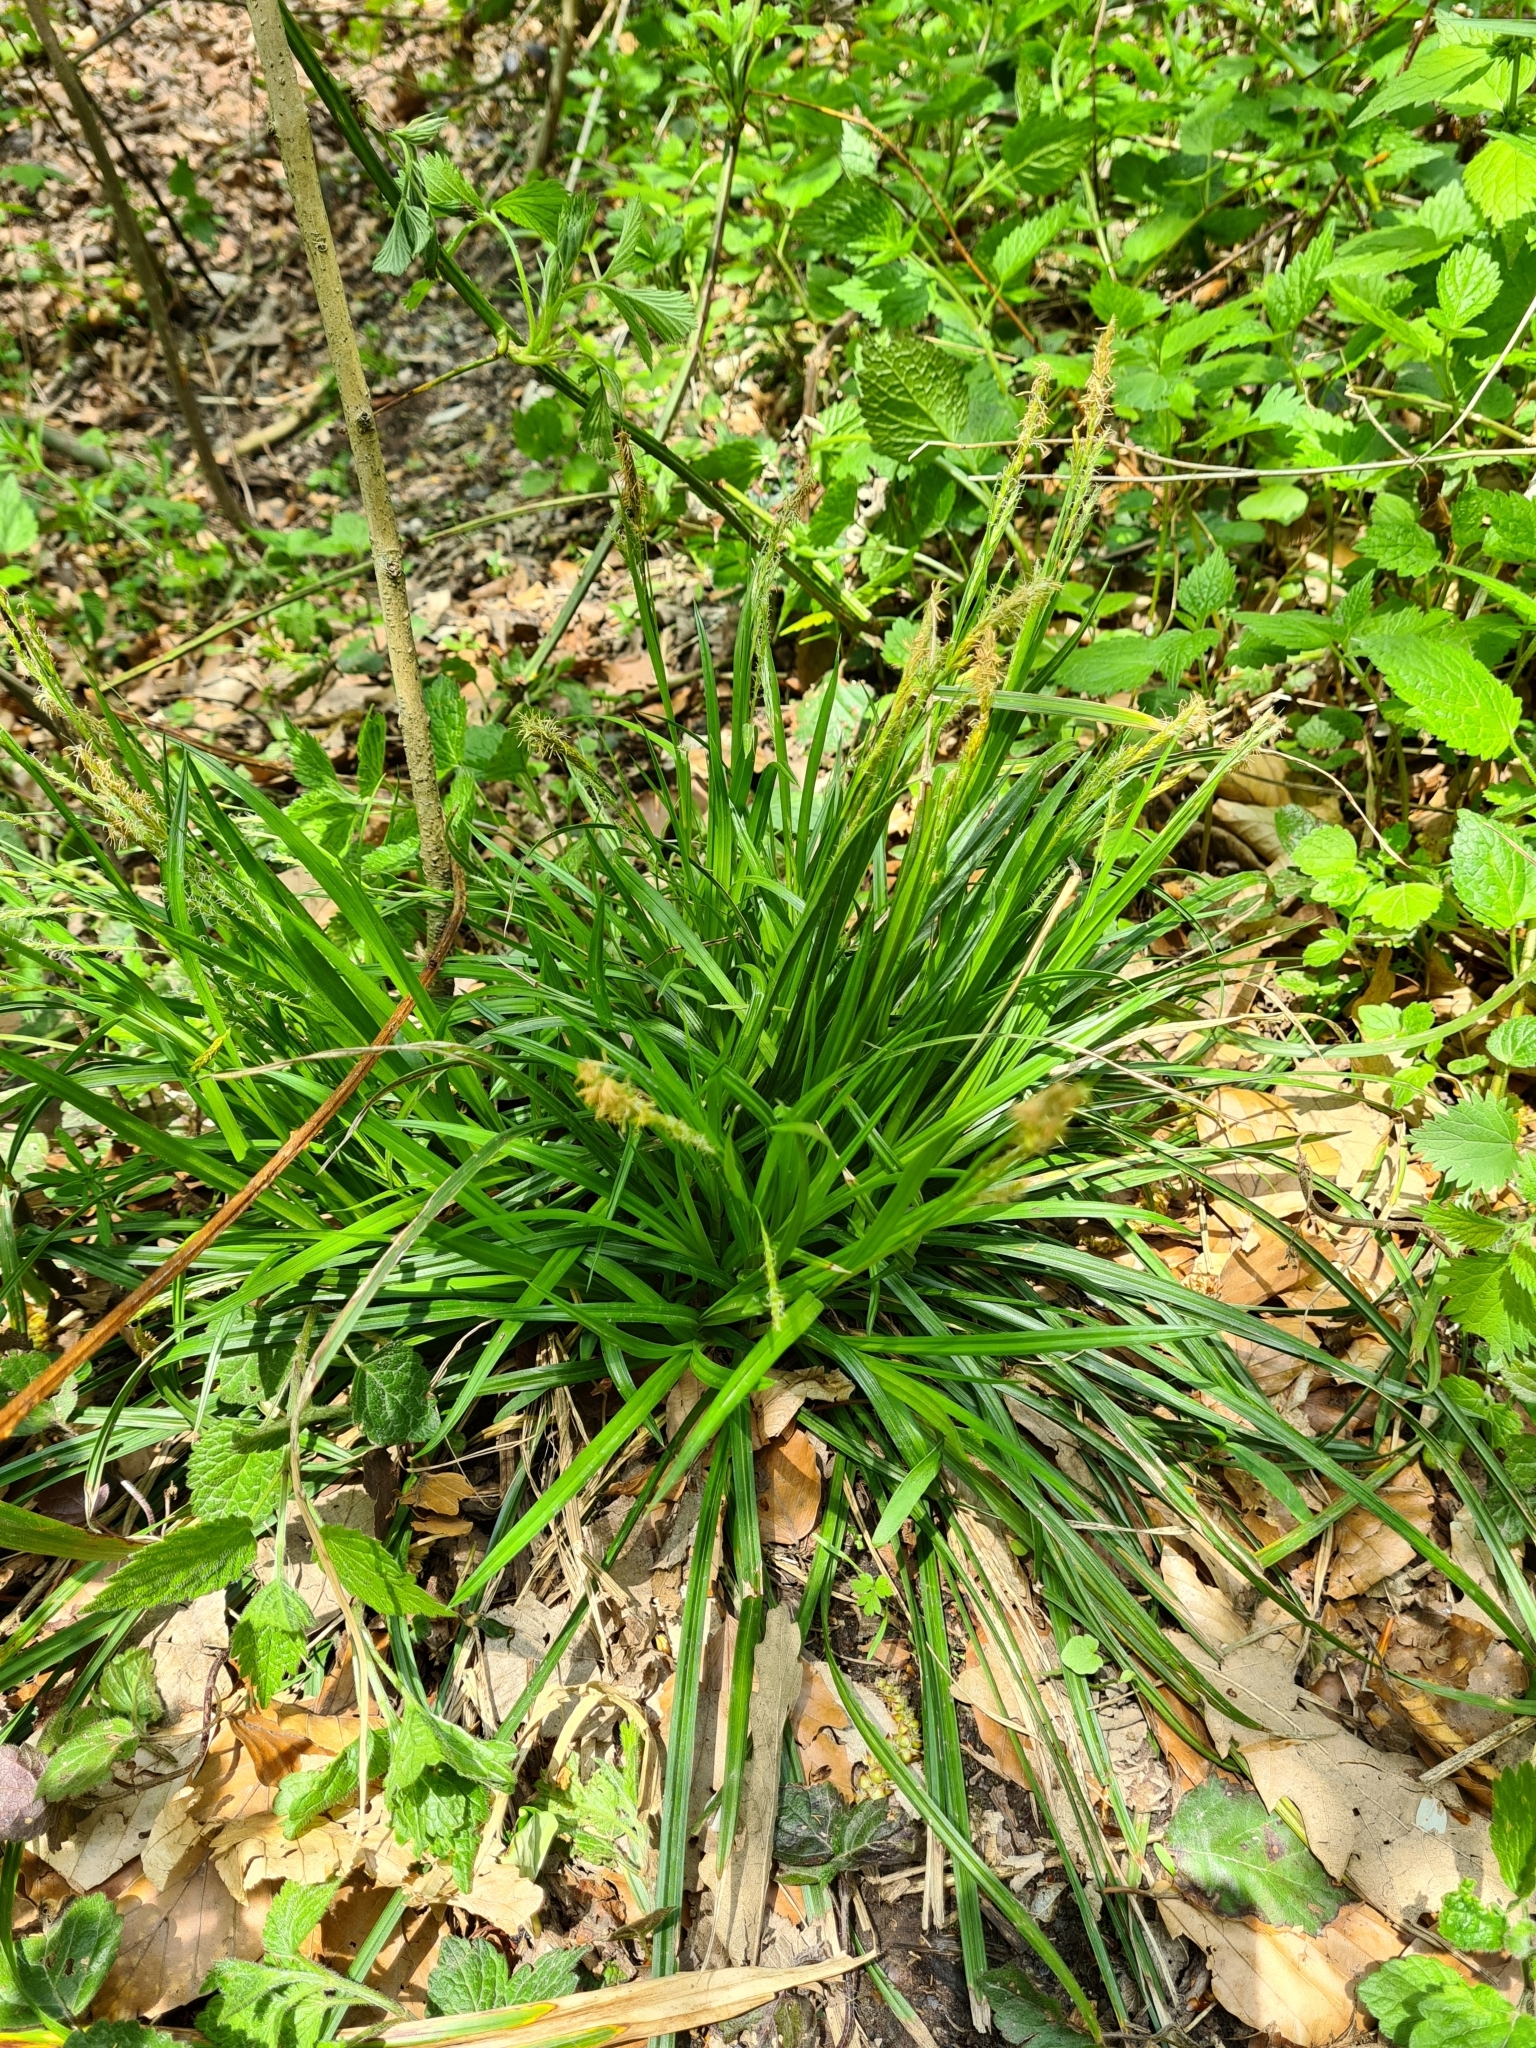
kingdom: Plantae
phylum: Tracheophyta
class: Liliopsida
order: Poales
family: Cyperaceae
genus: Carex
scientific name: Carex sylvatica
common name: Wood-sedge
